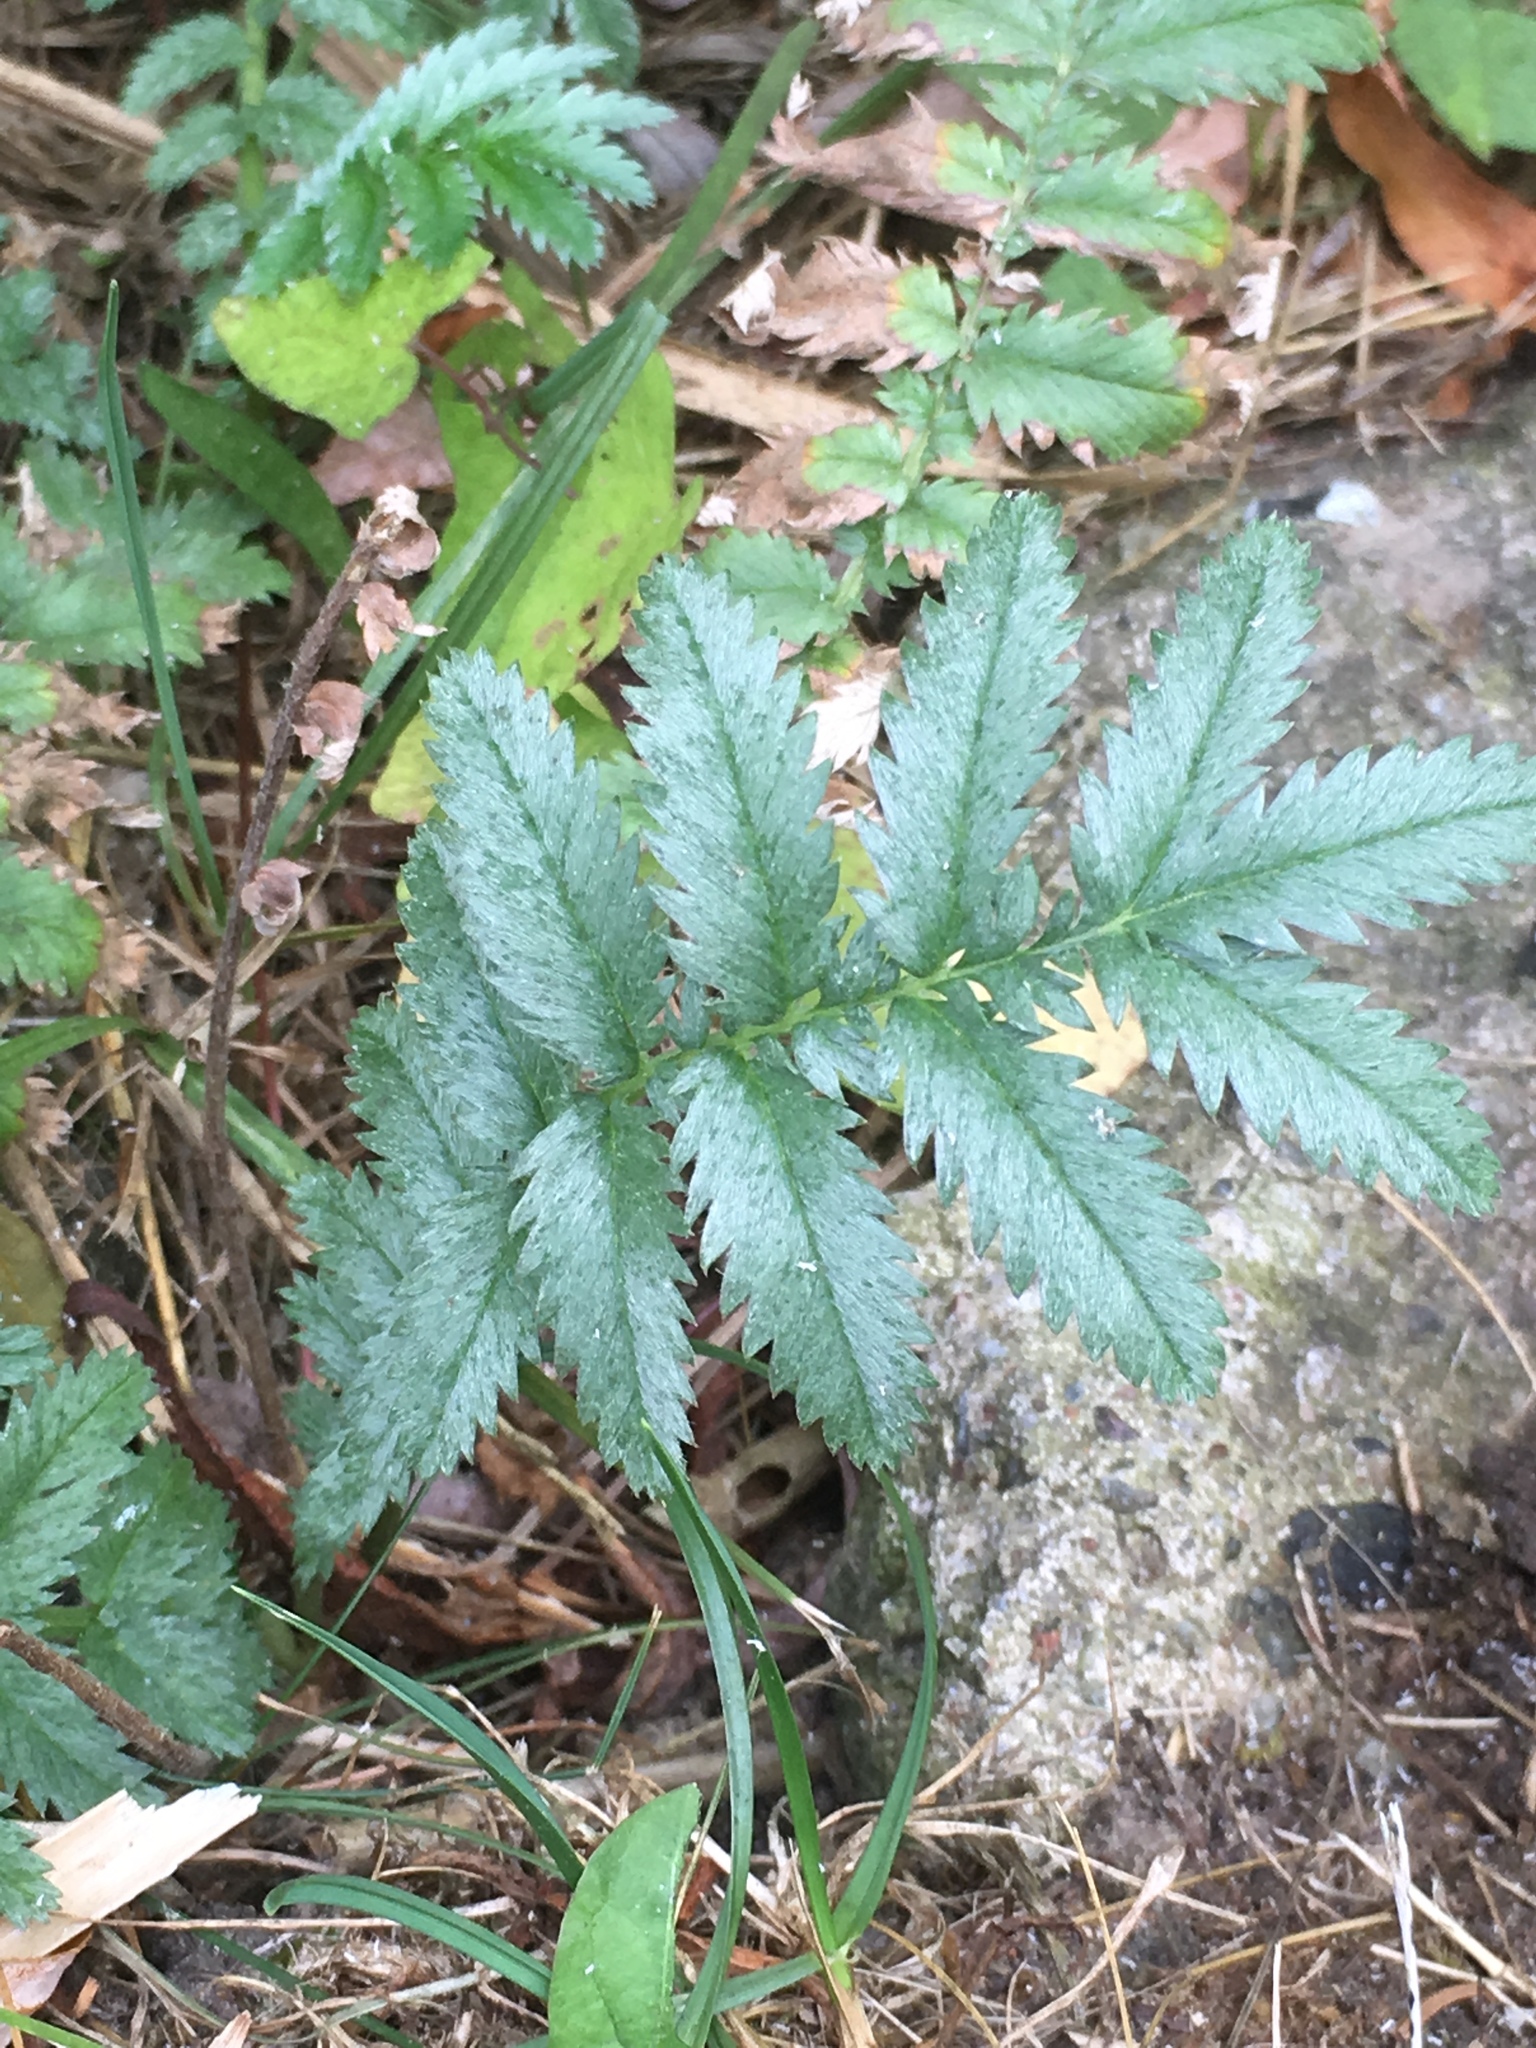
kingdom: Plantae
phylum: Tracheophyta
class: Magnoliopsida
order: Rosales
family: Rosaceae
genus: Argentina
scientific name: Argentina anserina
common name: Common silverweed
